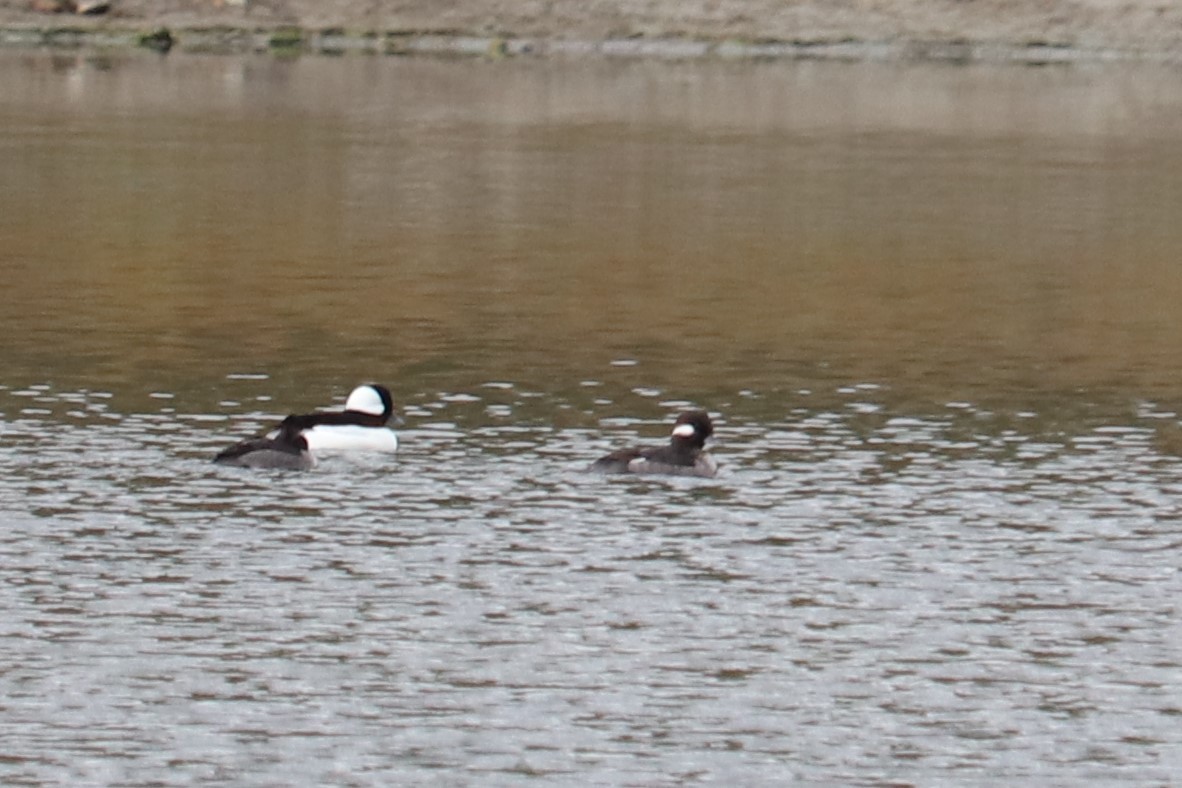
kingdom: Animalia
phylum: Chordata
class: Aves
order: Anseriformes
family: Anatidae
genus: Bucephala
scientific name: Bucephala albeola
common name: Bufflehead
